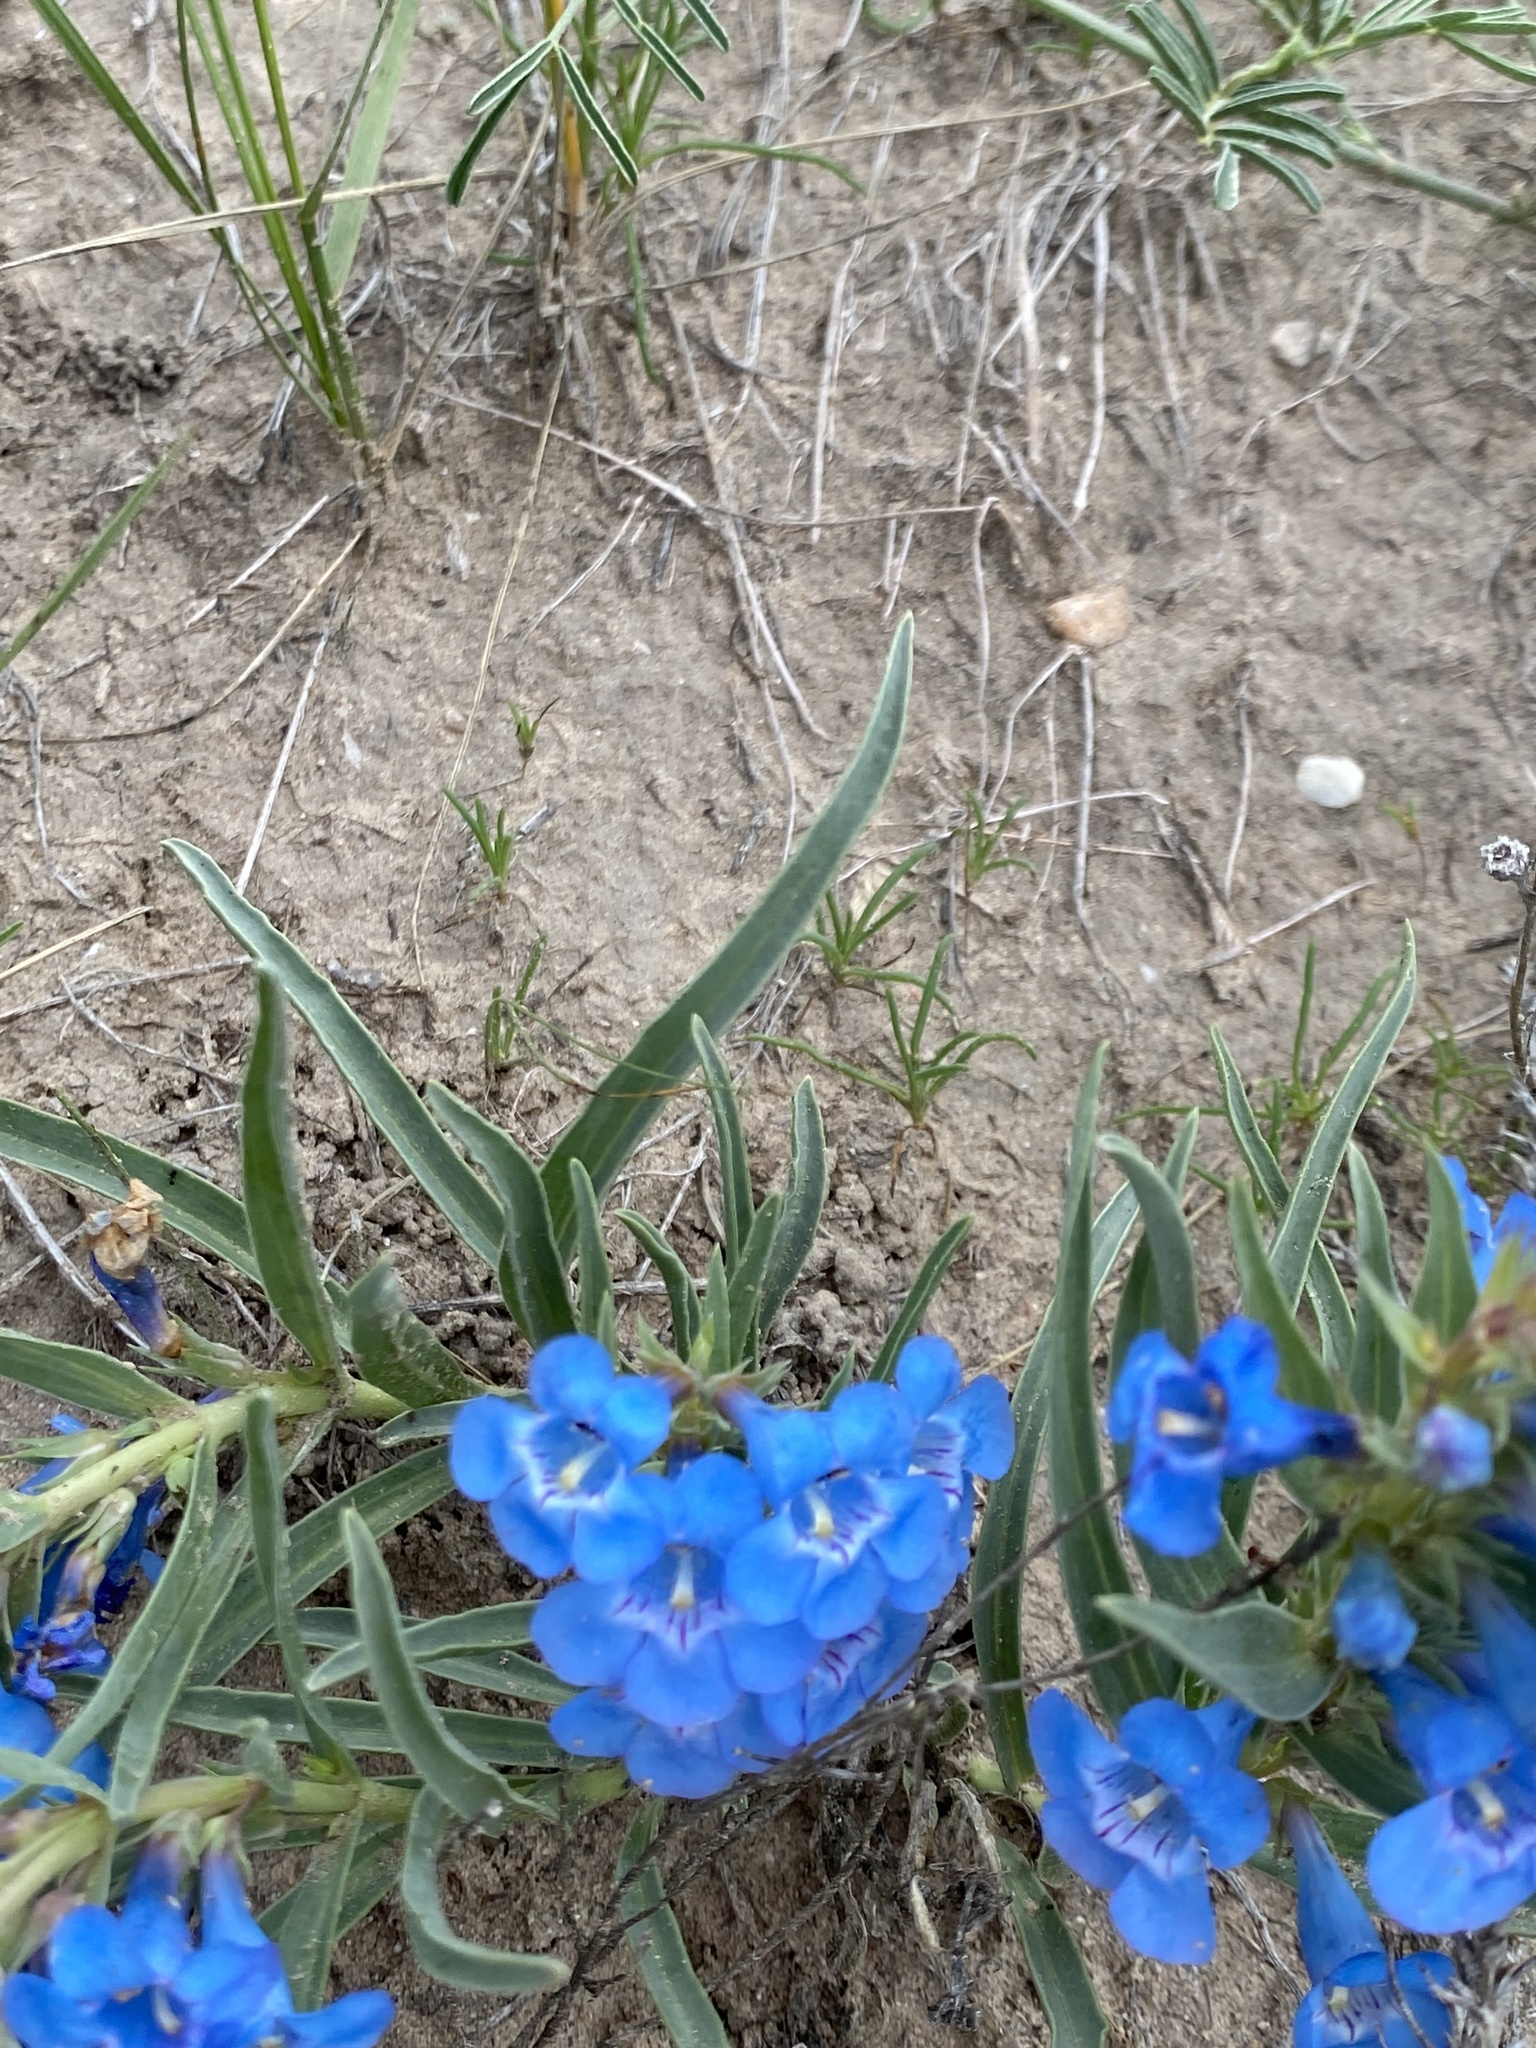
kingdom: Plantae
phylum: Tracheophyta
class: Magnoliopsida
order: Lamiales
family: Plantaginaceae
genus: Penstemon
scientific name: Penstemon angustifolius
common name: Narrow beardtongue
